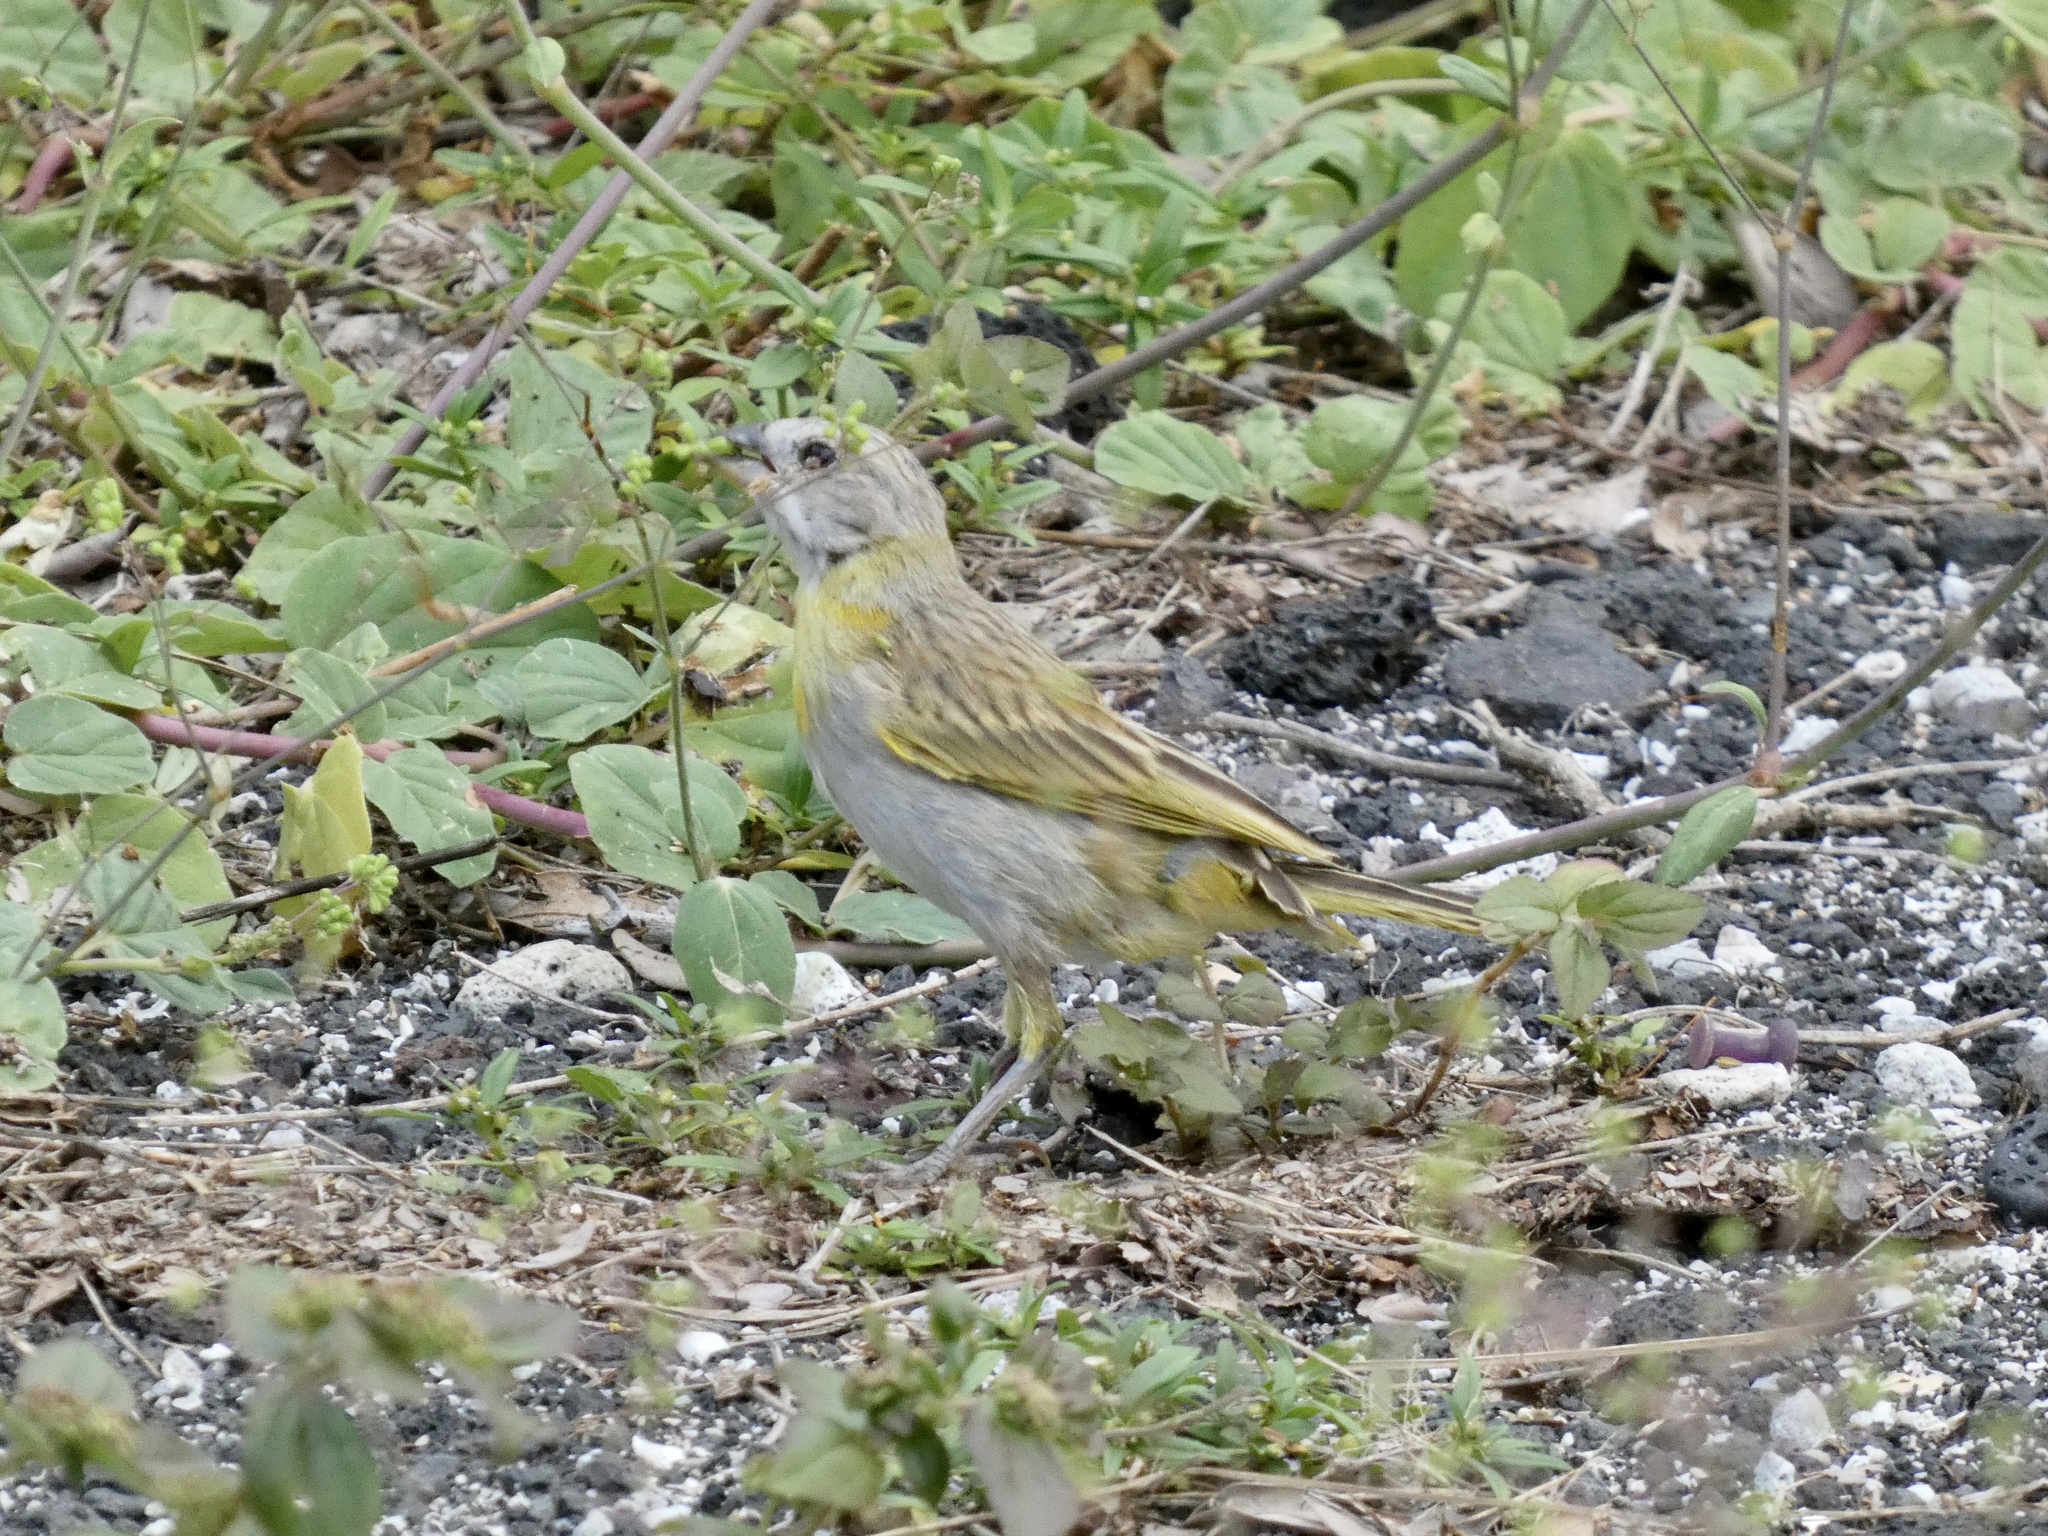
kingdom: Animalia
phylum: Chordata
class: Aves
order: Passeriformes
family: Thraupidae
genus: Sicalis
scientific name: Sicalis flaveola
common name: Saffron finch
